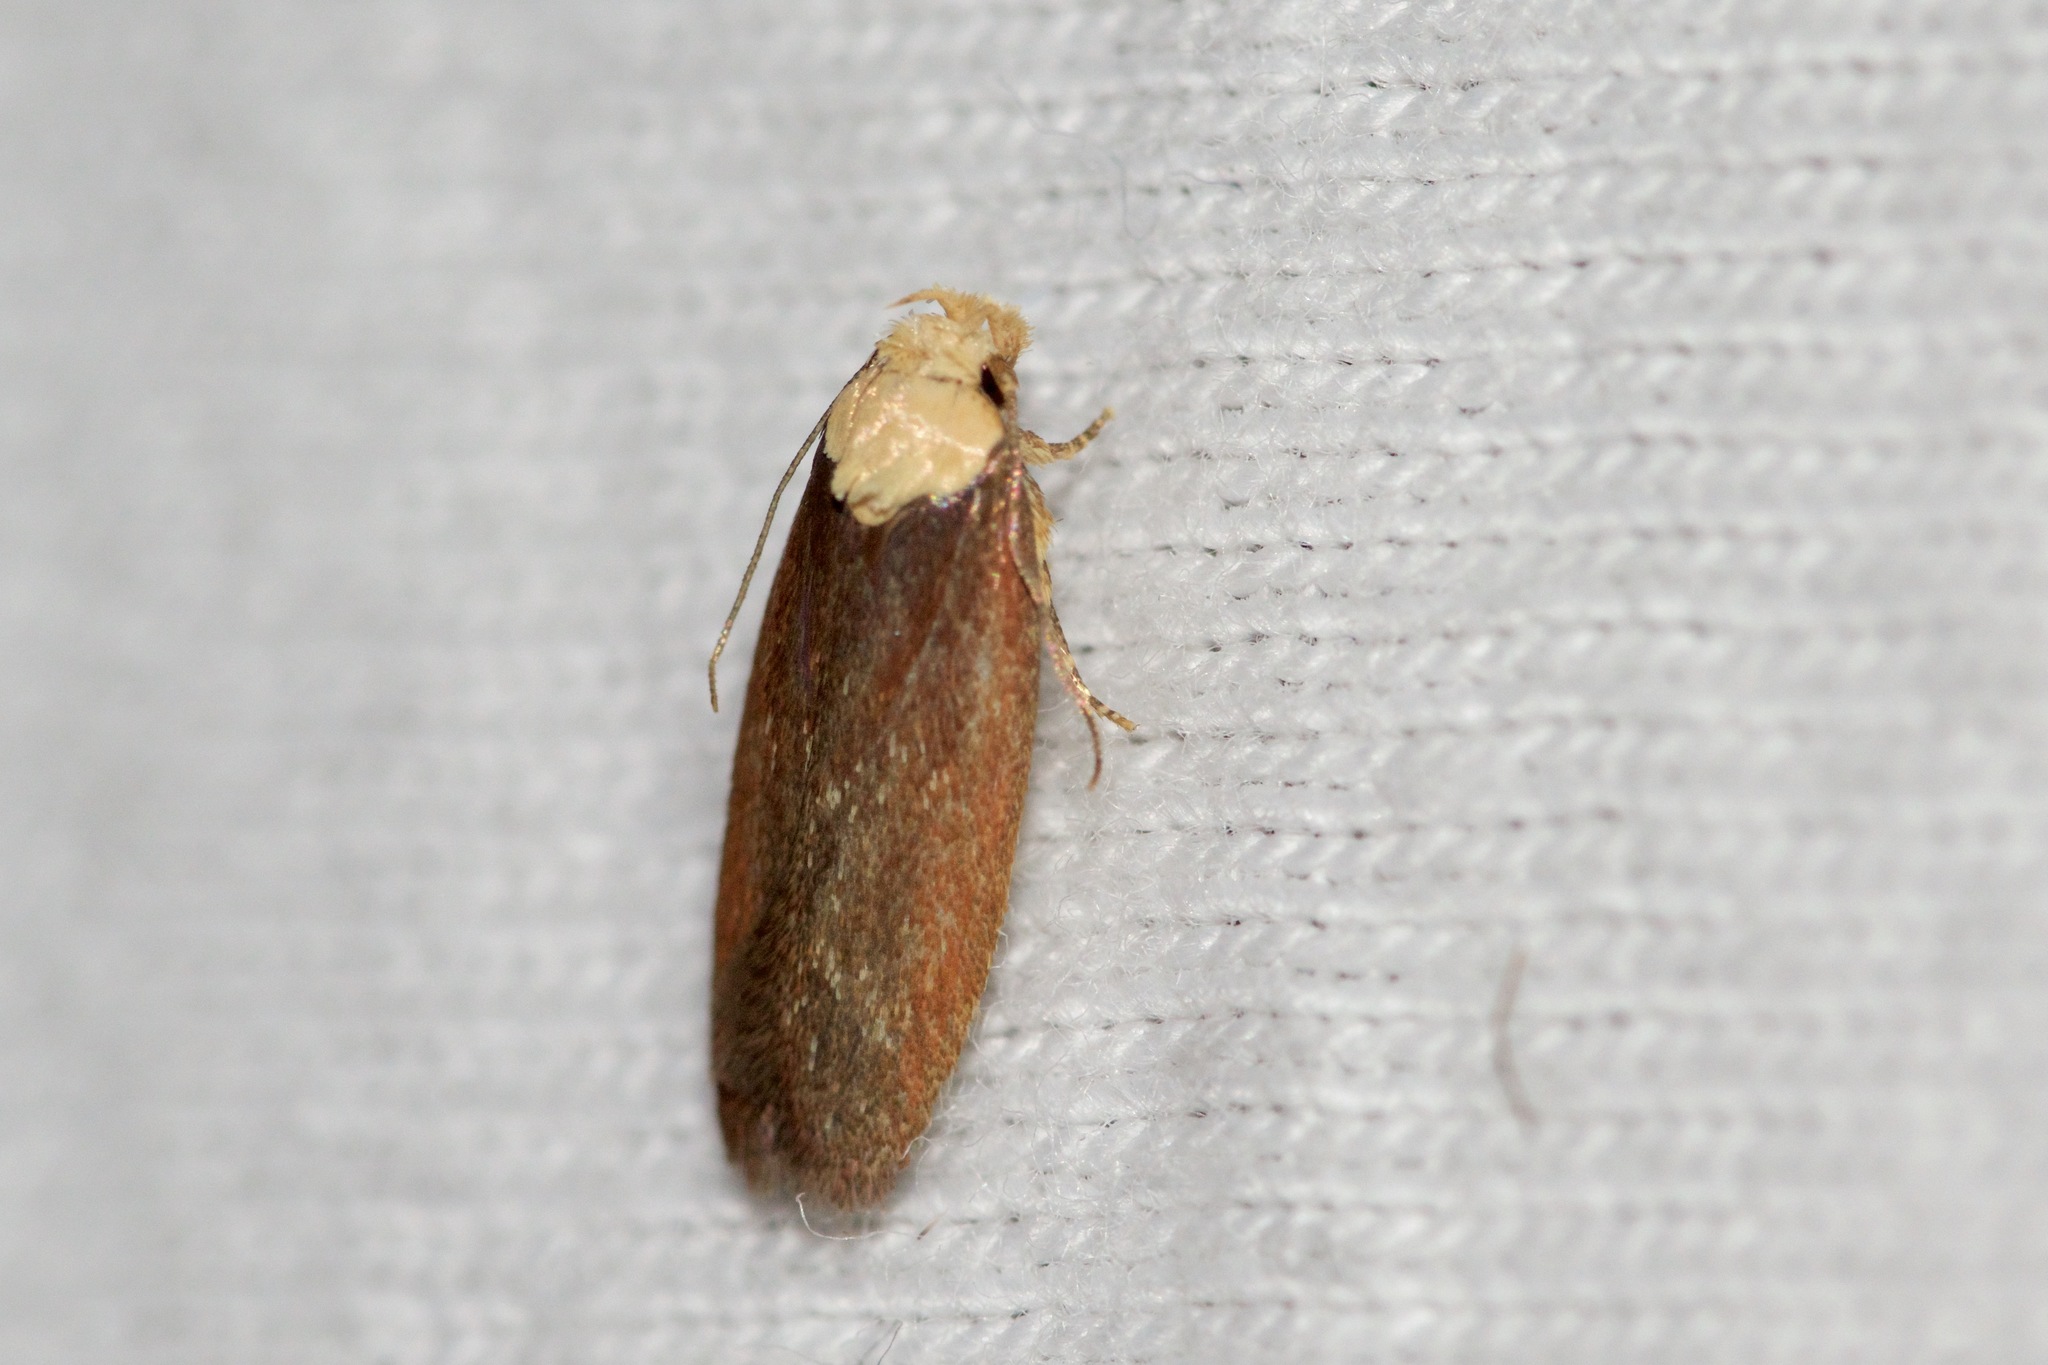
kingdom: Animalia
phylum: Arthropoda
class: Insecta
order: Lepidoptera
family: Depressariidae
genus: Depressaria
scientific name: Depressaria depressana
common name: Lost flat-body
